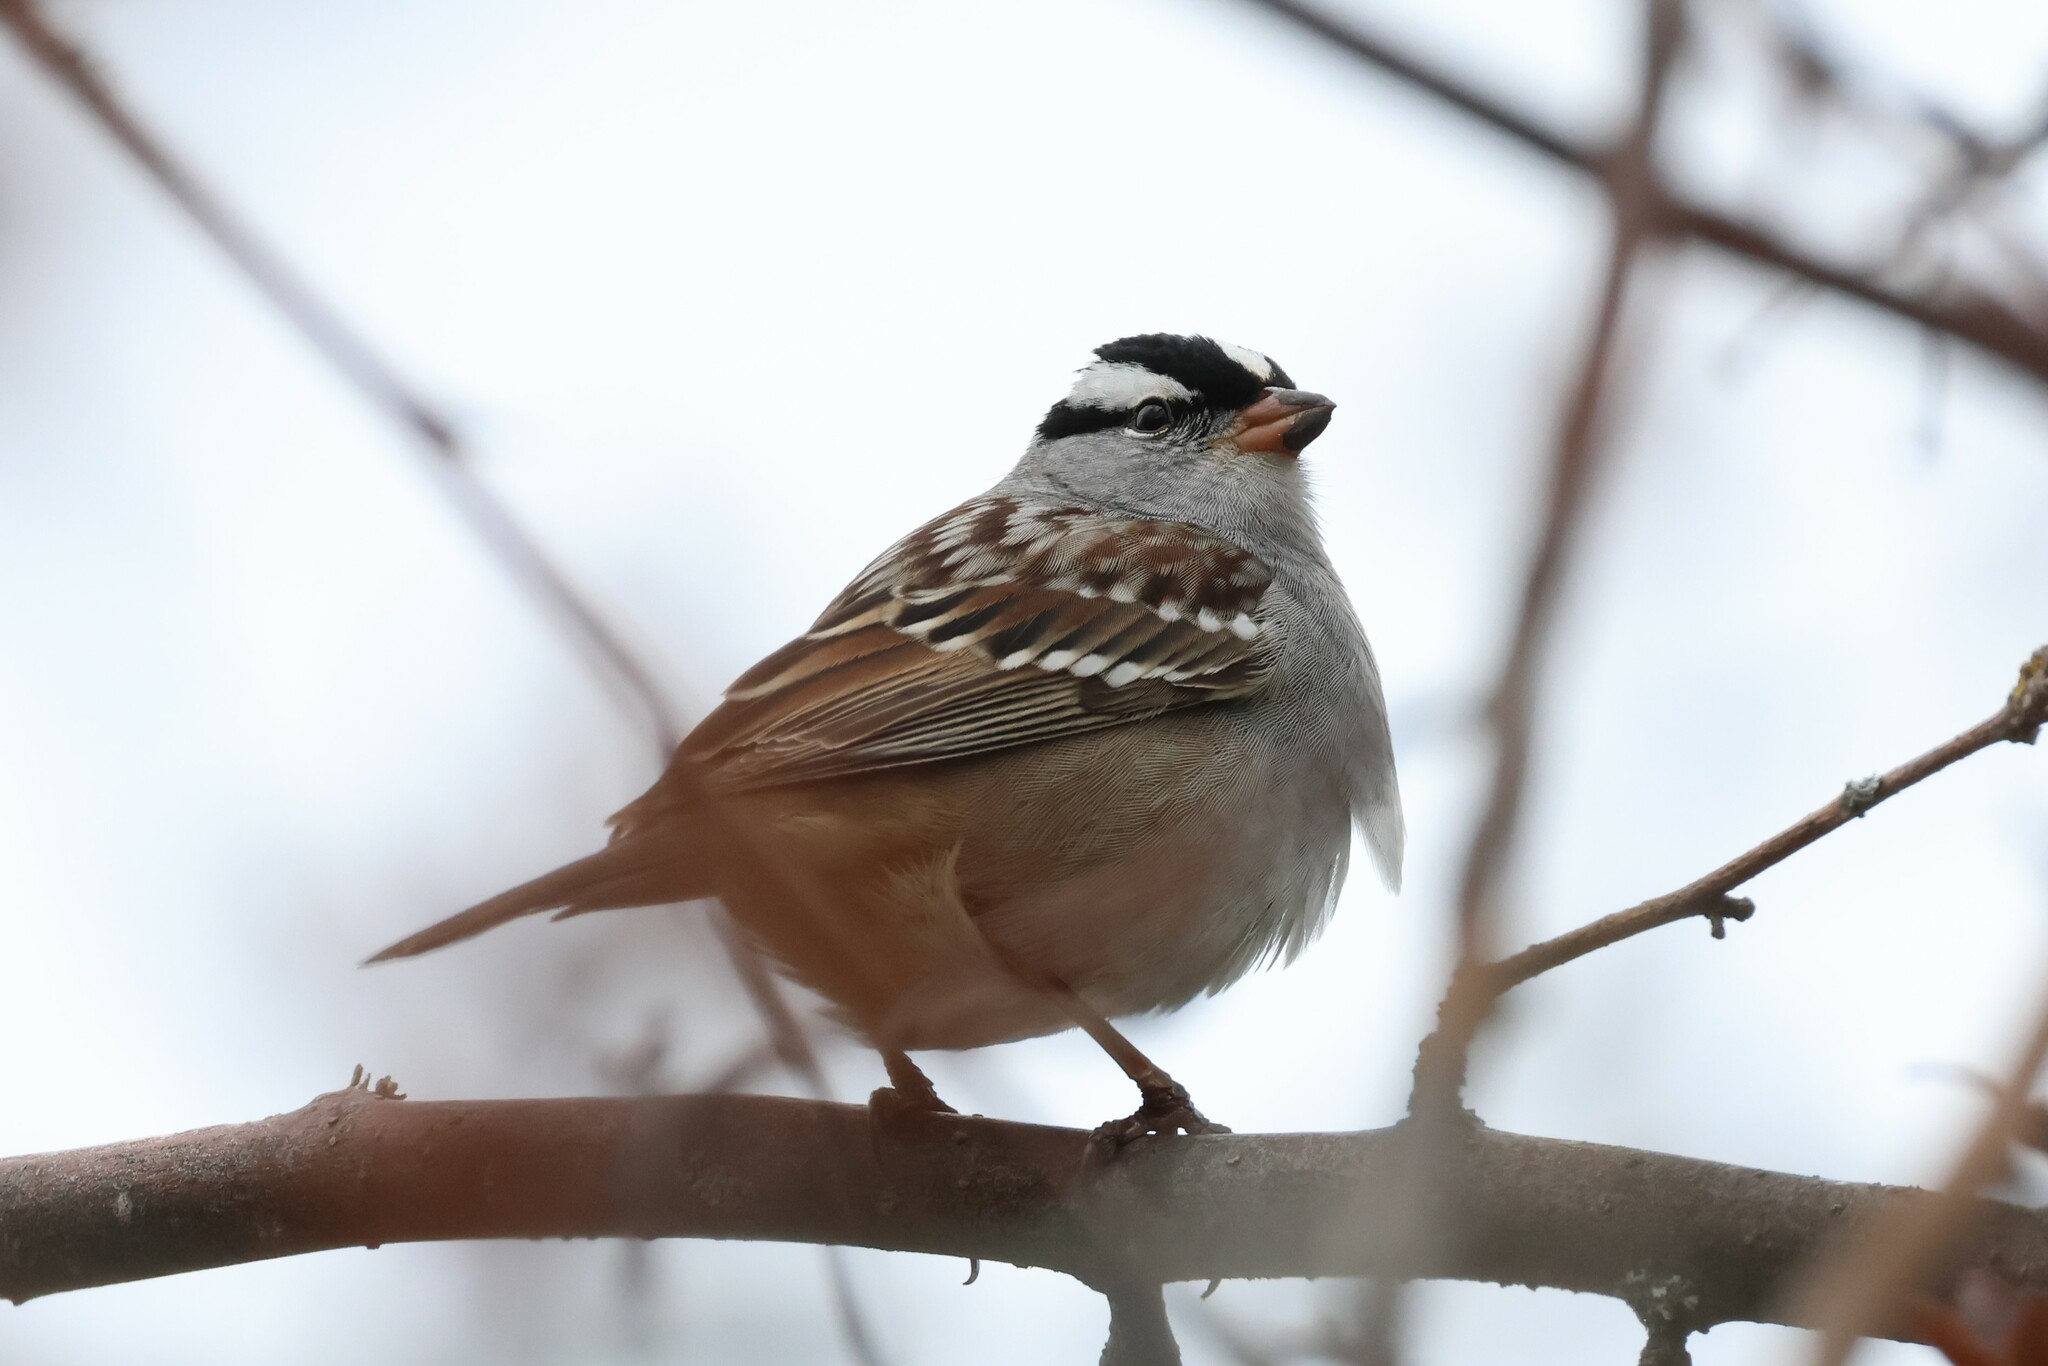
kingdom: Animalia
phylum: Chordata
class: Aves
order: Passeriformes
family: Passerellidae
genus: Zonotrichia
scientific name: Zonotrichia leucophrys
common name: White-crowned sparrow
